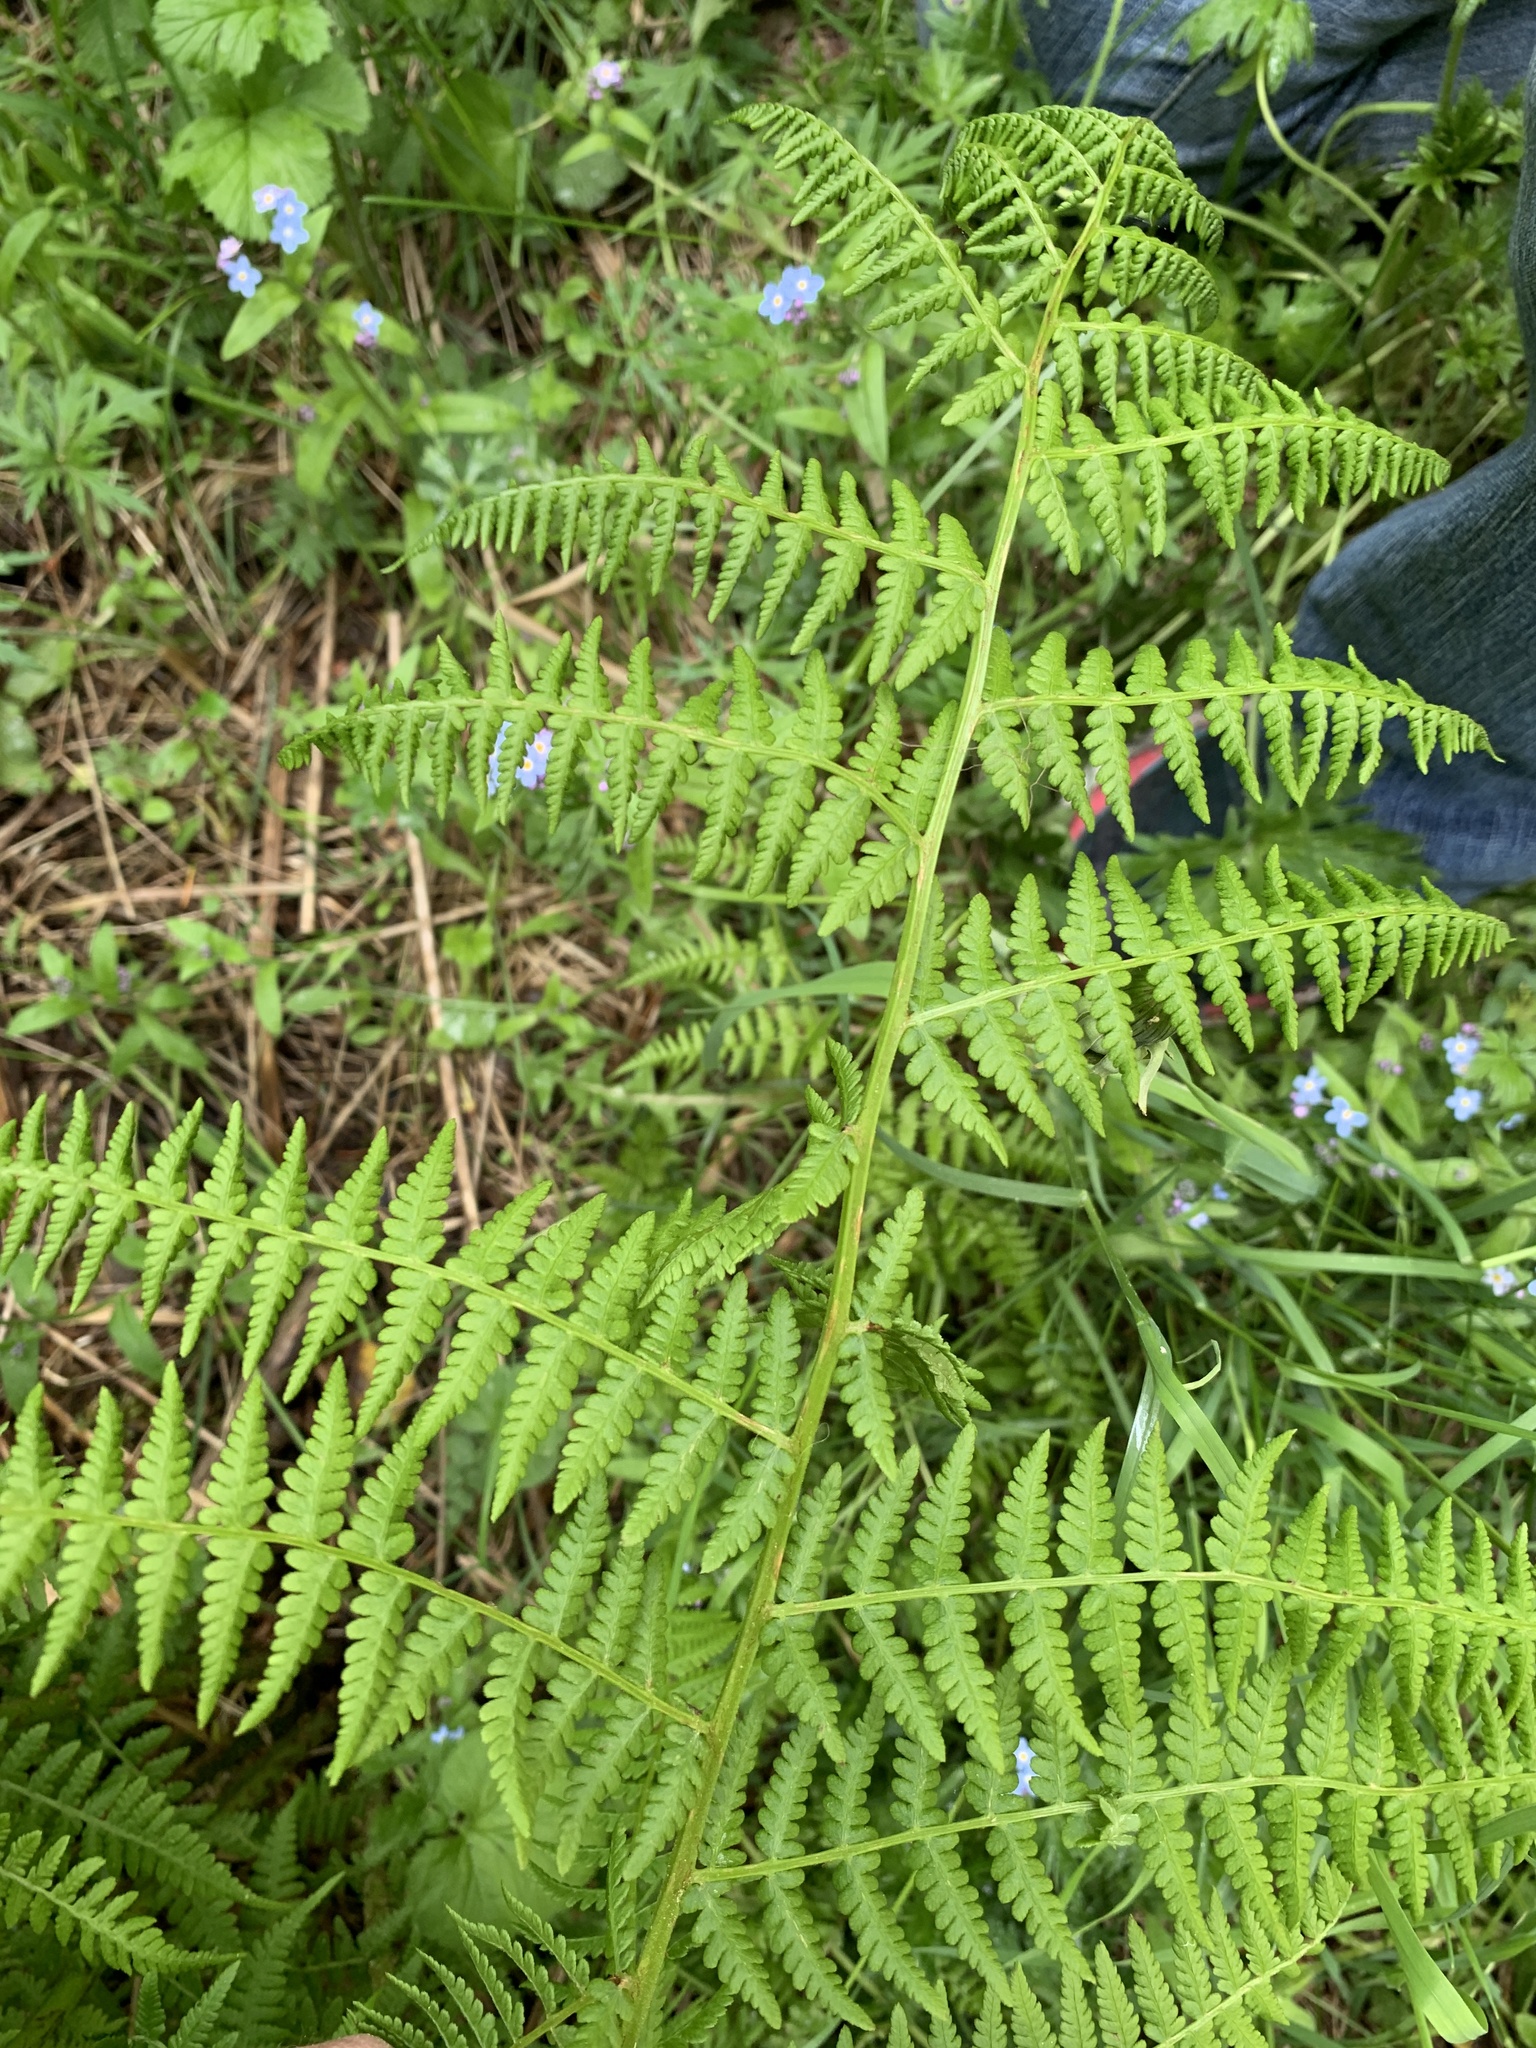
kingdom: Plantae
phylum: Tracheophyta
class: Polypodiopsida
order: Polypodiales
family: Athyriaceae
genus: Athyrium
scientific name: Athyrium filix-femina
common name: Lady fern
